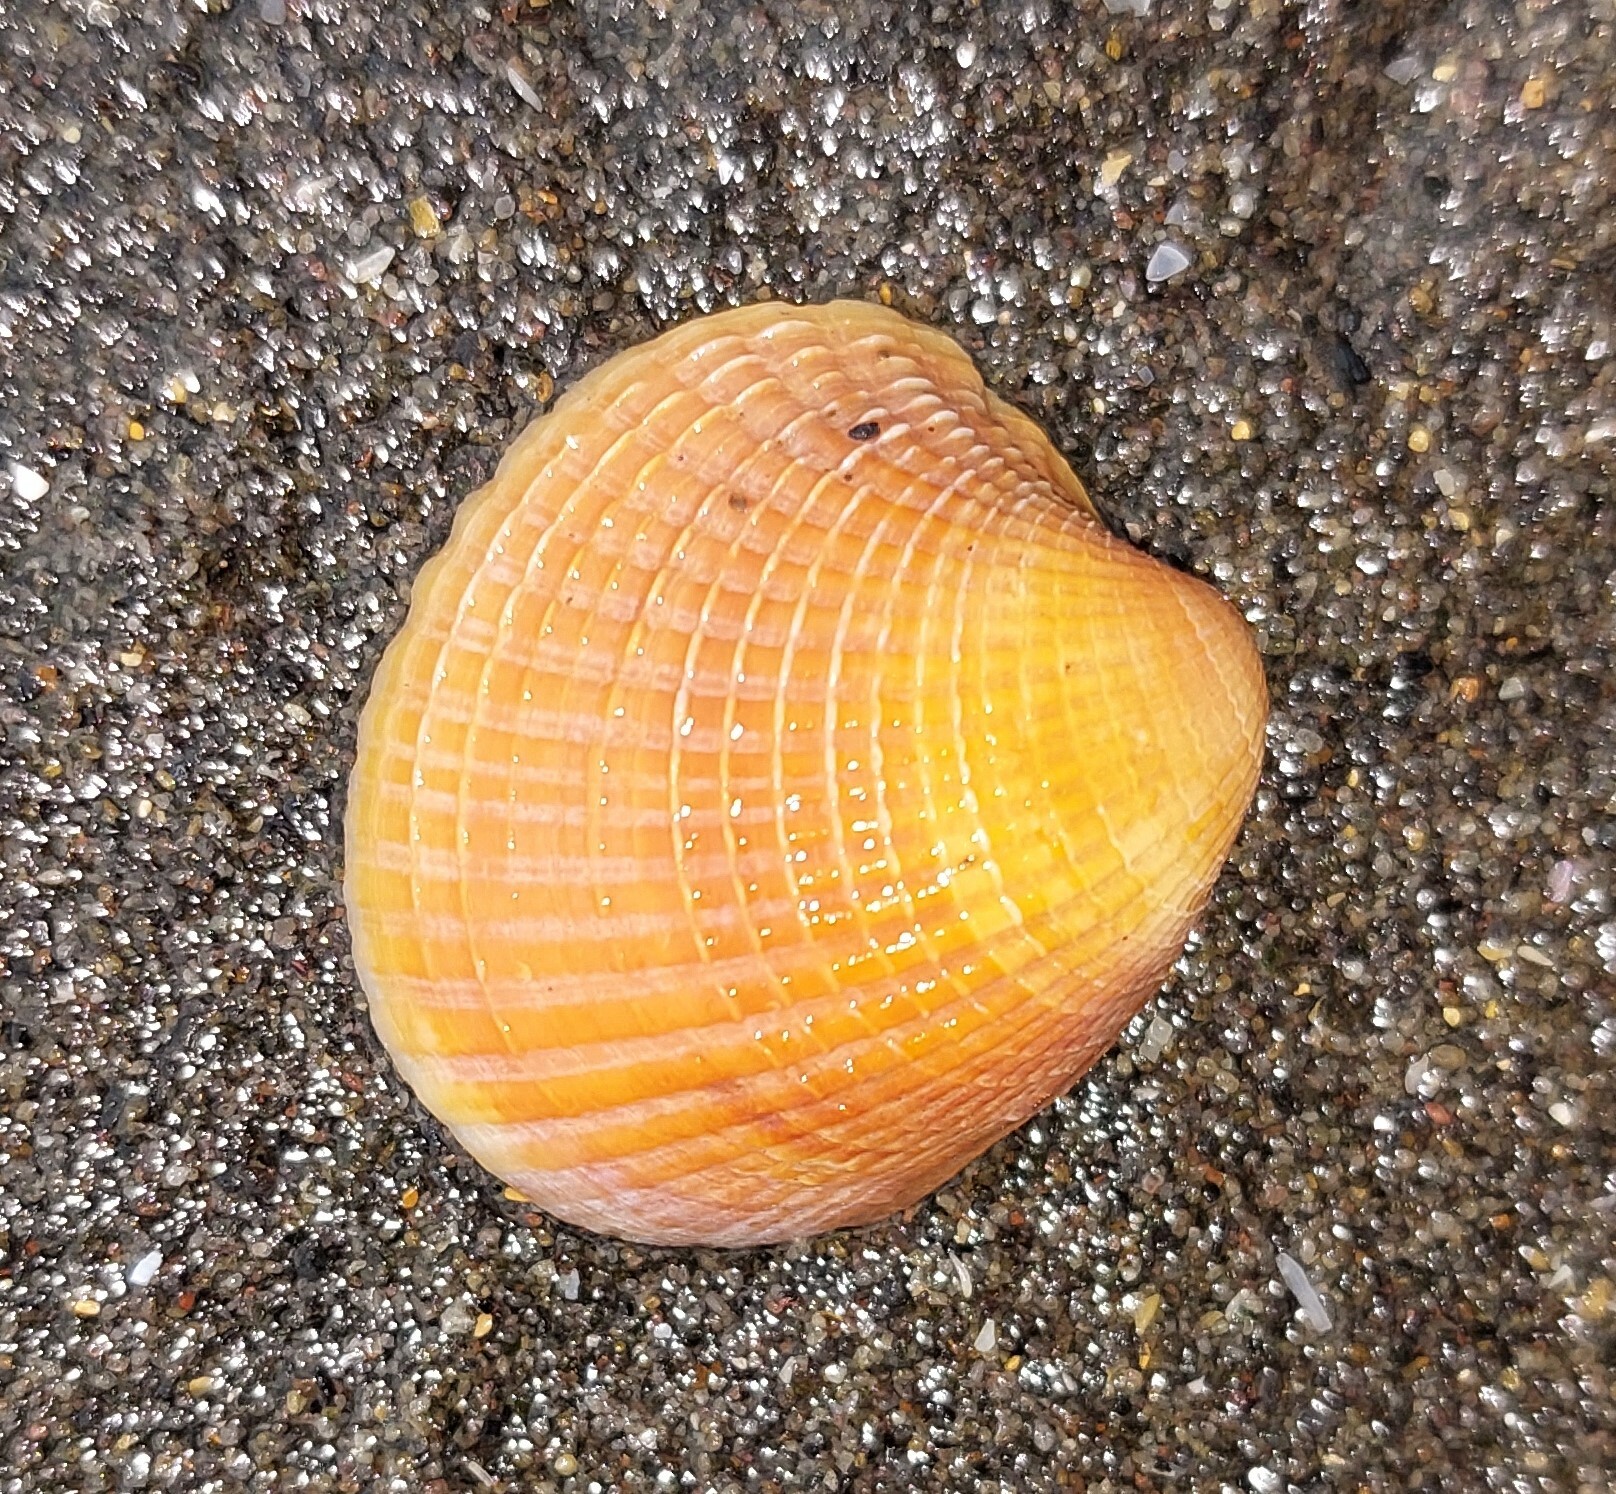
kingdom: Animalia
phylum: Mollusca
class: Bivalvia
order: Venerida
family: Veneridae
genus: Austrovenus
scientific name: Austrovenus stutchburyi
